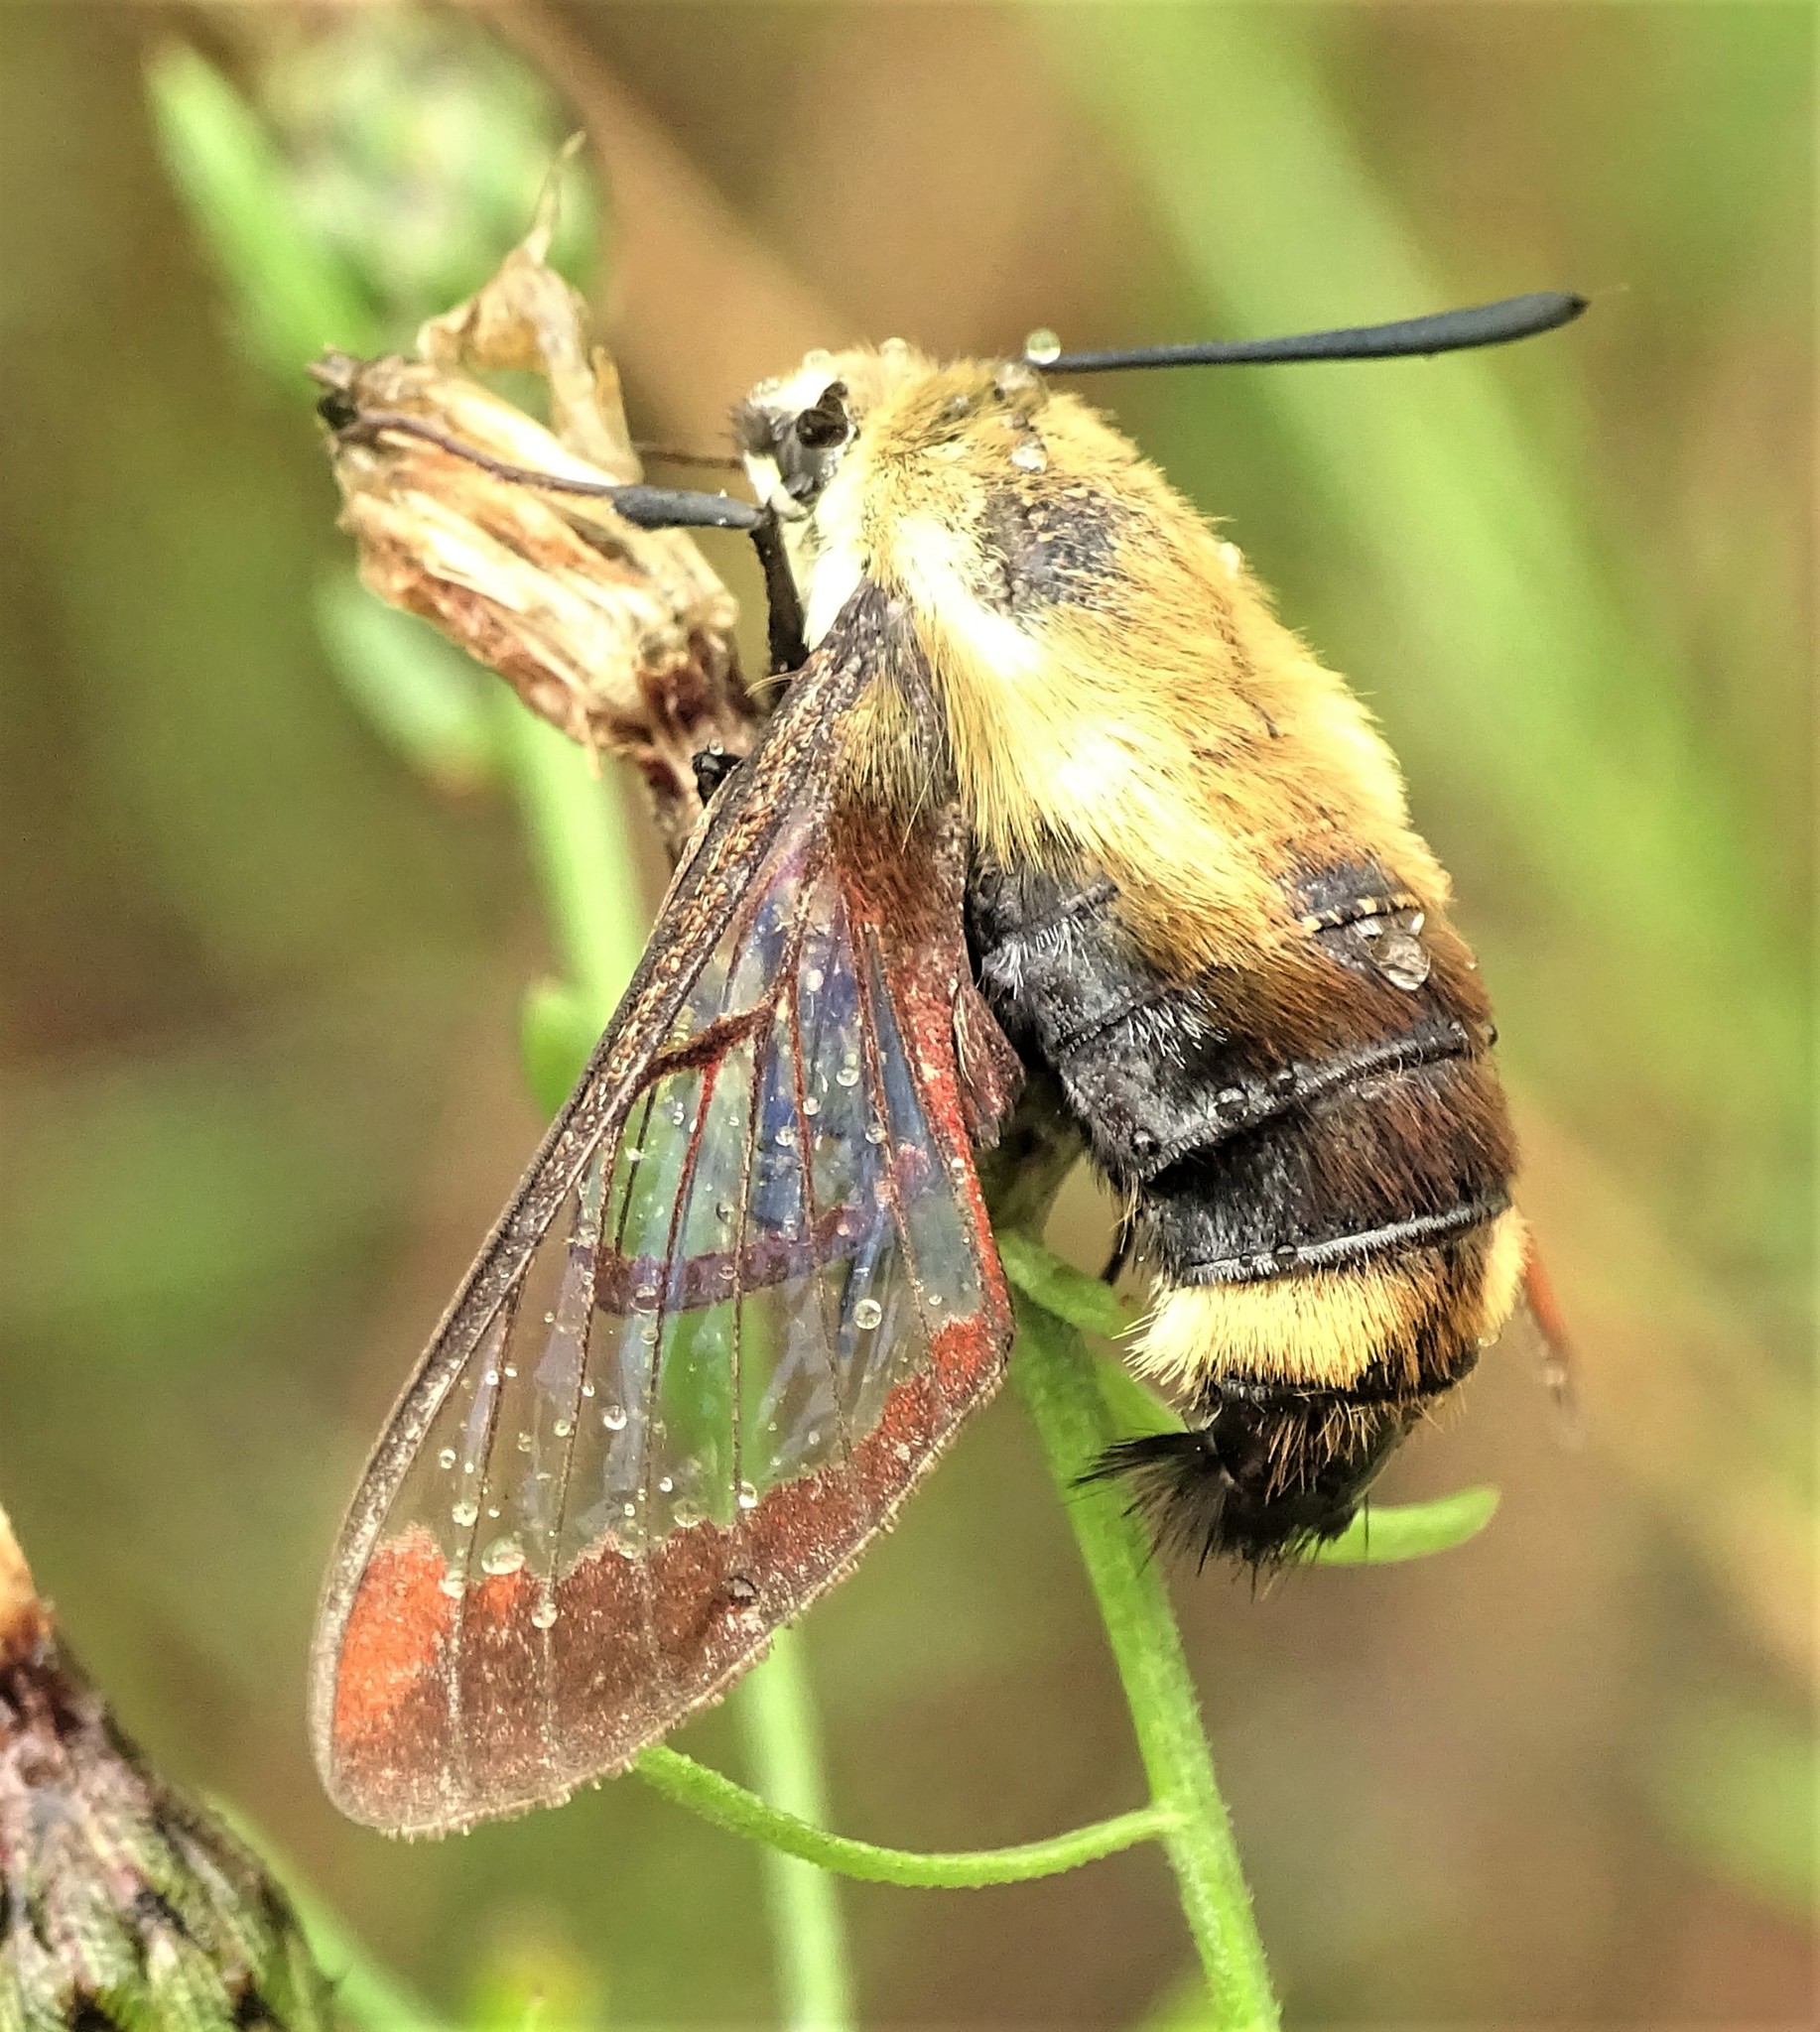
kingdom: Animalia
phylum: Arthropoda
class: Insecta
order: Lepidoptera
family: Sphingidae
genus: Hemaris
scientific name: Hemaris diffinis
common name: Bumblebee moth
